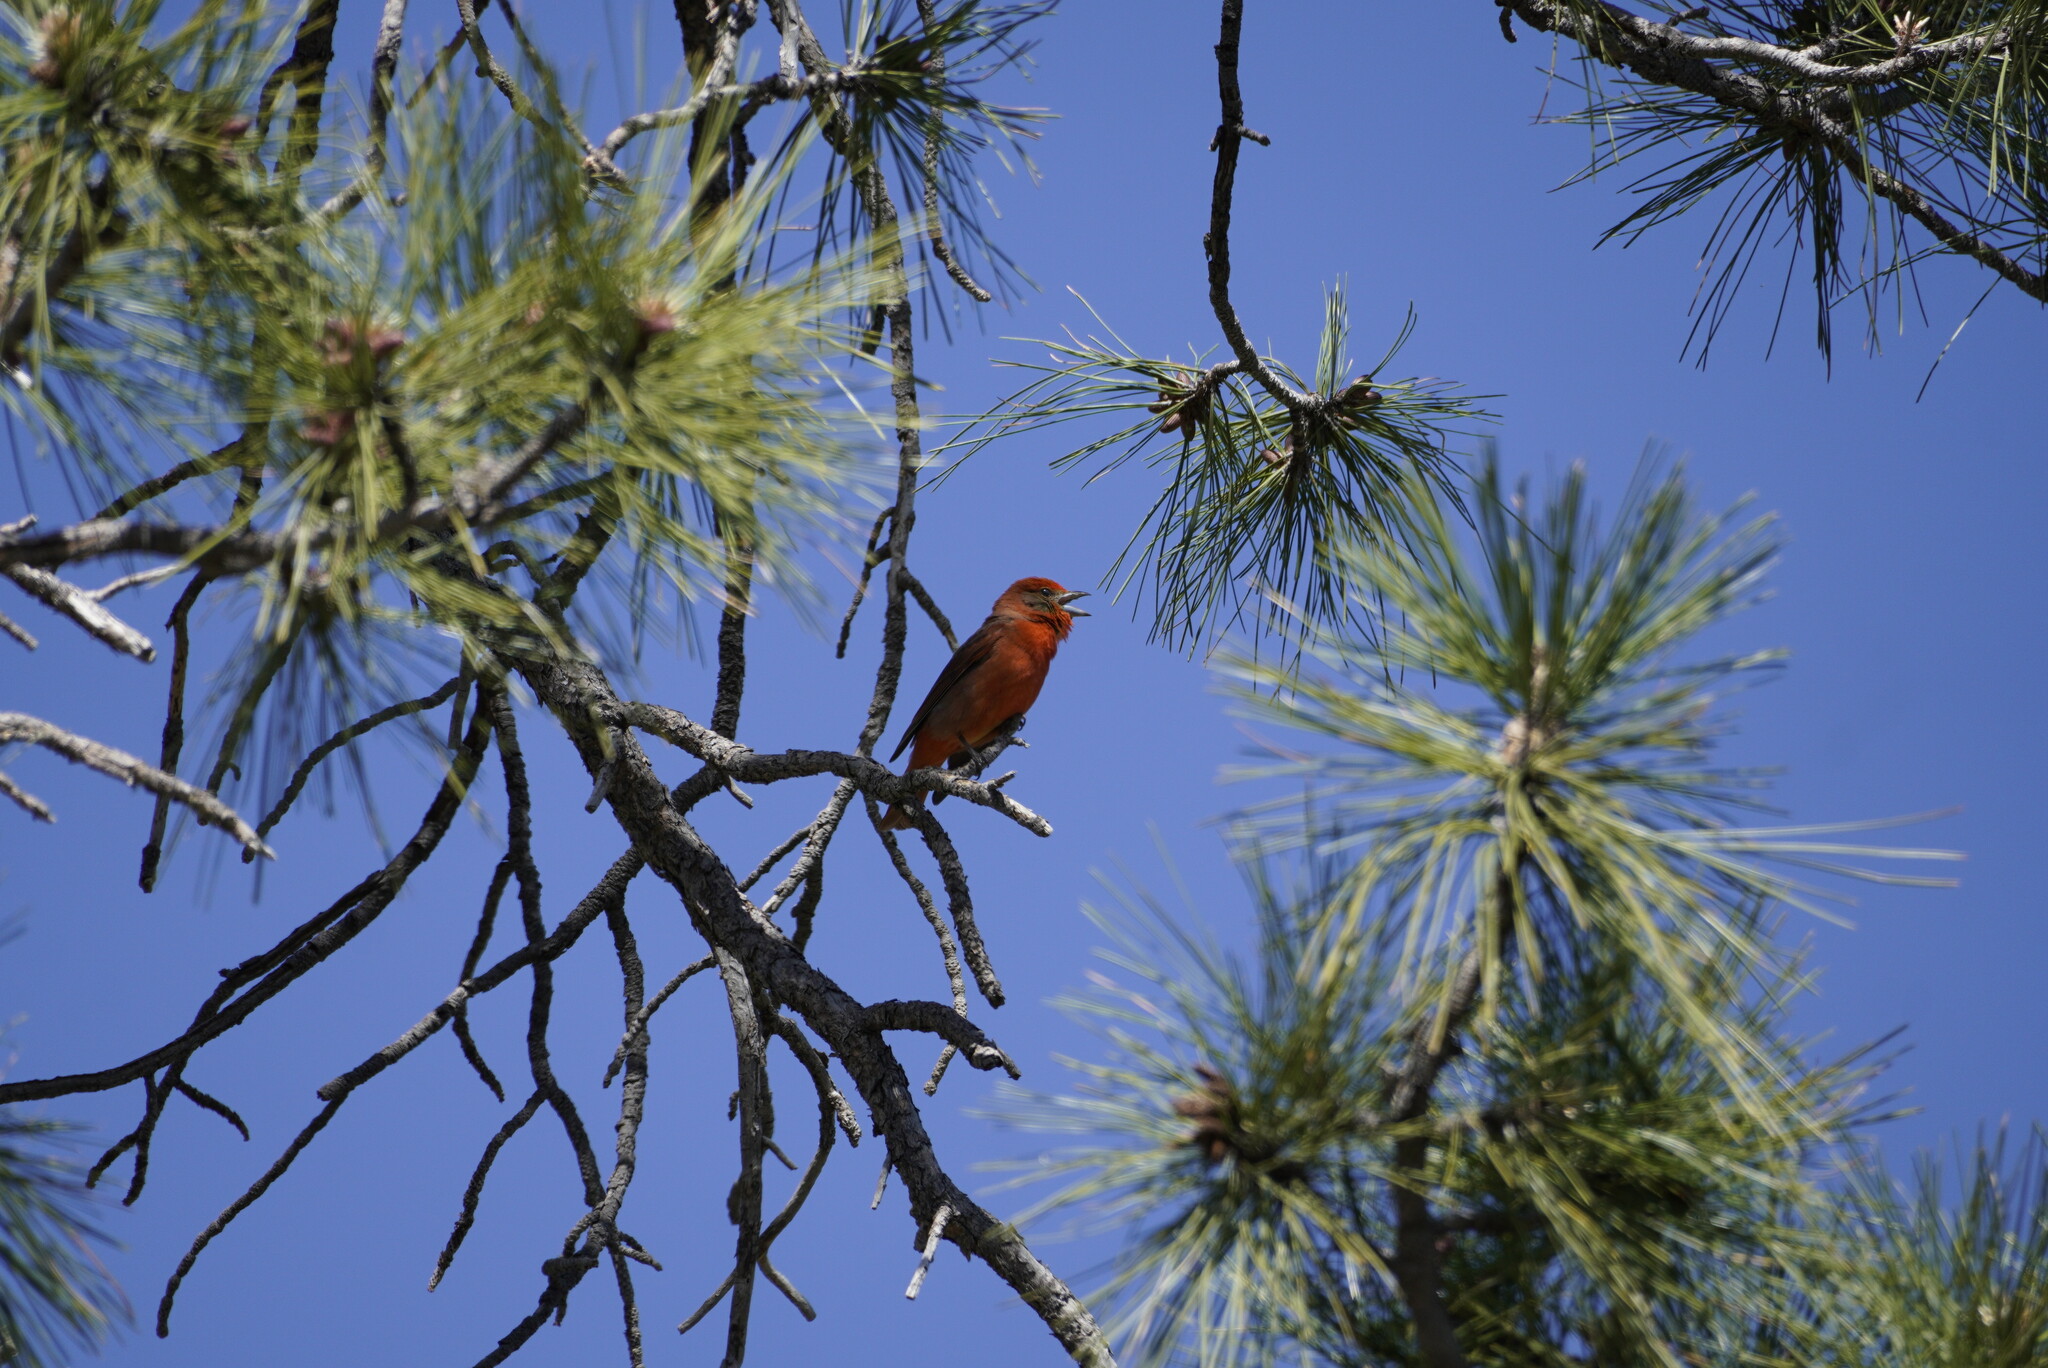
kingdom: Animalia
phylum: Chordata
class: Aves
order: Passeriformes
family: Cardinalidae
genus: Piranga
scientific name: Piranga flava
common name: Red tanager
